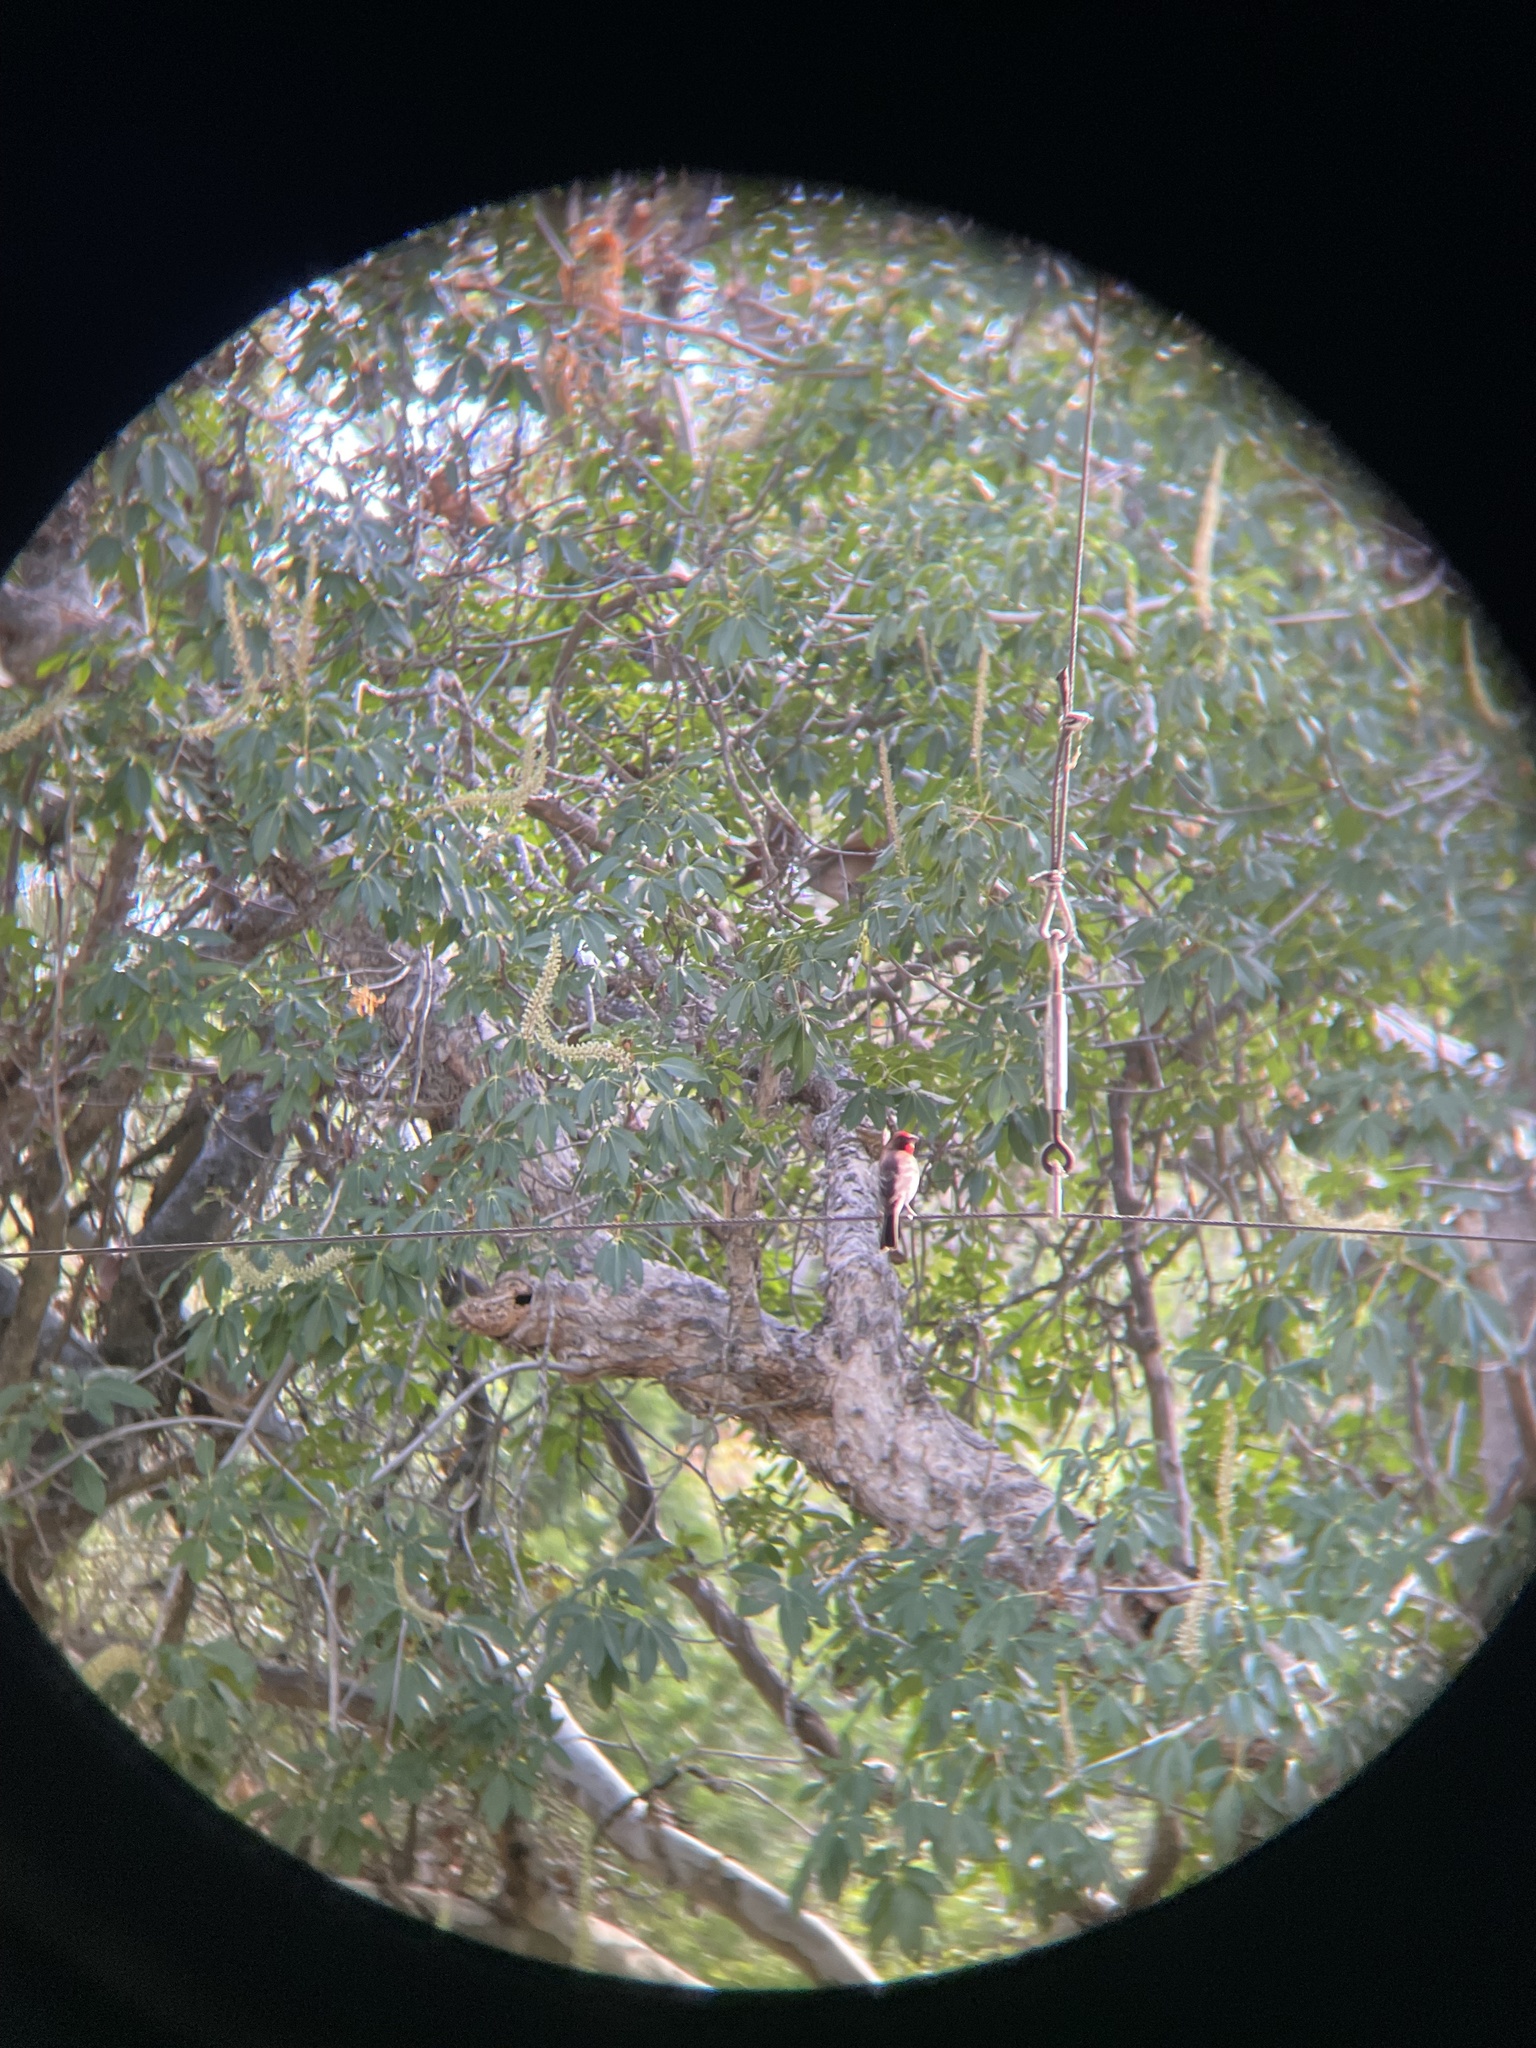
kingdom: Animalia
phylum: Chordata
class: Aves
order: Passeriformes
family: Fringillidae
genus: Haemorhous
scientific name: Haemorhous mexicanus
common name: House finch
